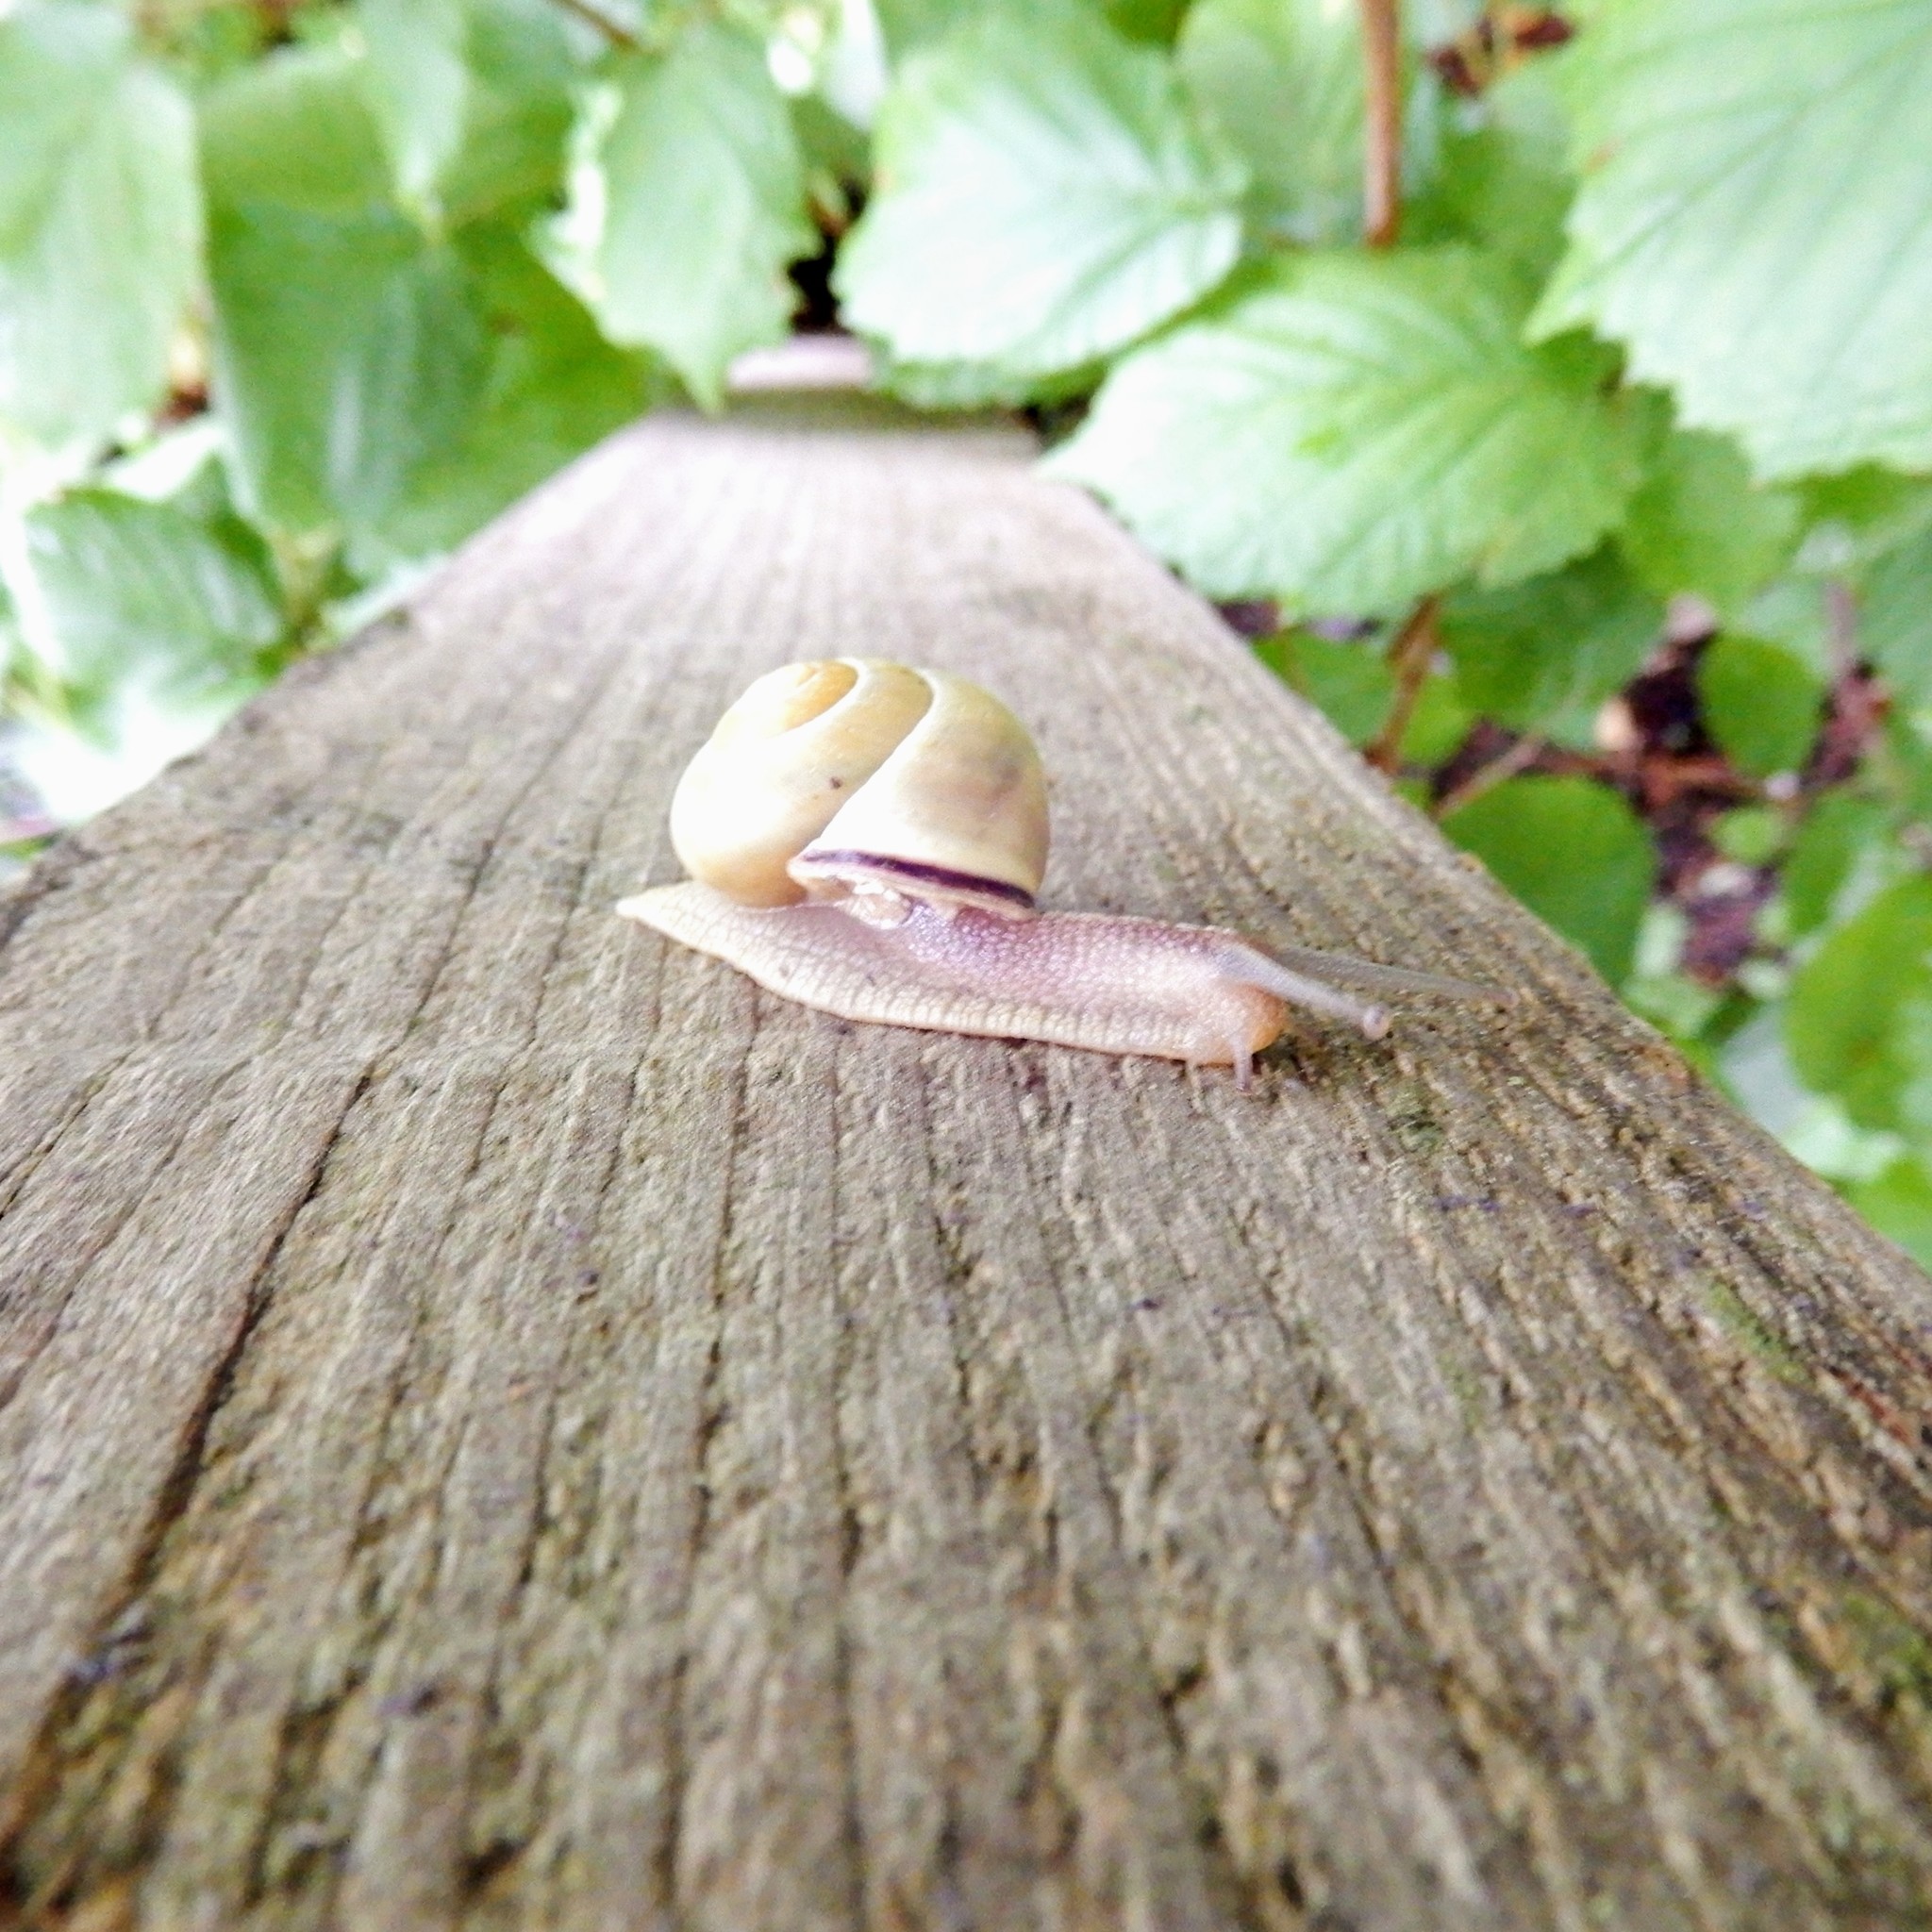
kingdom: Animalia
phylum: Mollusca
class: Gastropoda
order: Stylommatophora
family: Helicidae
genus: Cepaea
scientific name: Cepaea nemoralis
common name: Grovesnail
